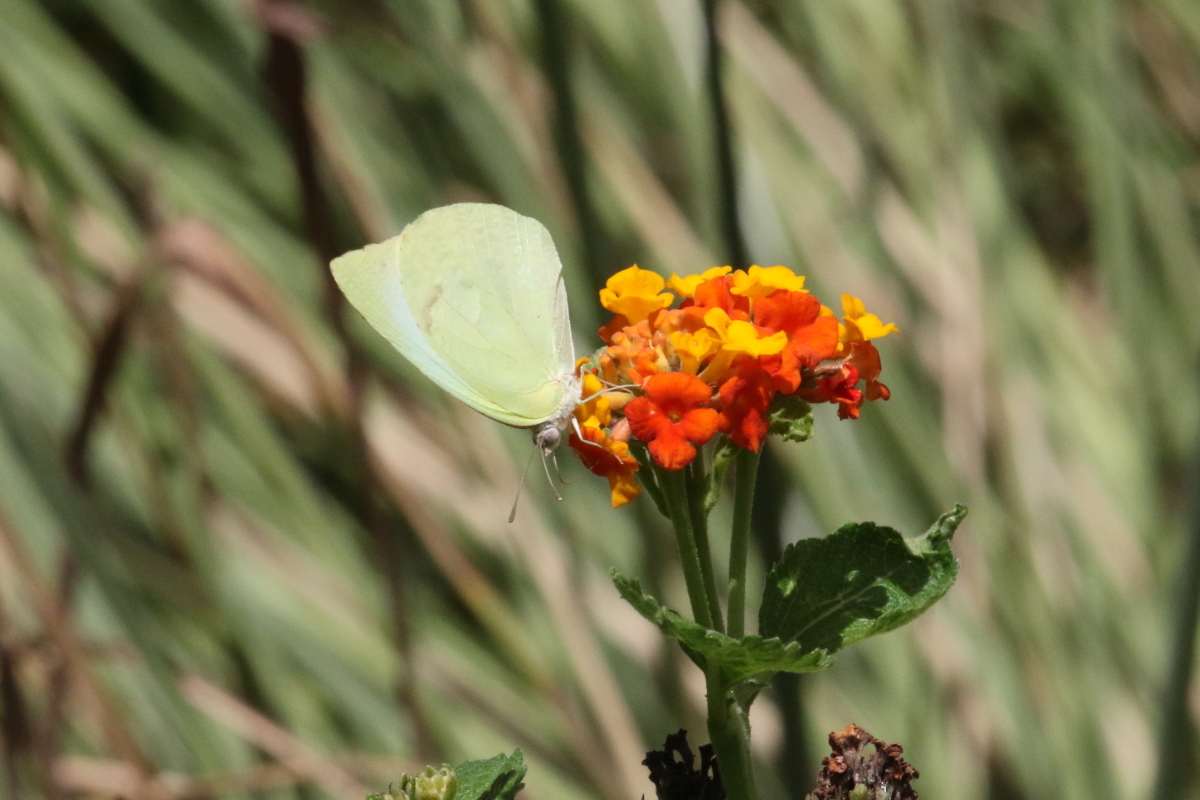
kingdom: Animalia
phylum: Arthropoda
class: Insecta
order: Lepidoptera
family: Pieridae
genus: Kricogonia
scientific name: Kricogonia lyside
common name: Guayacan sulphur,
